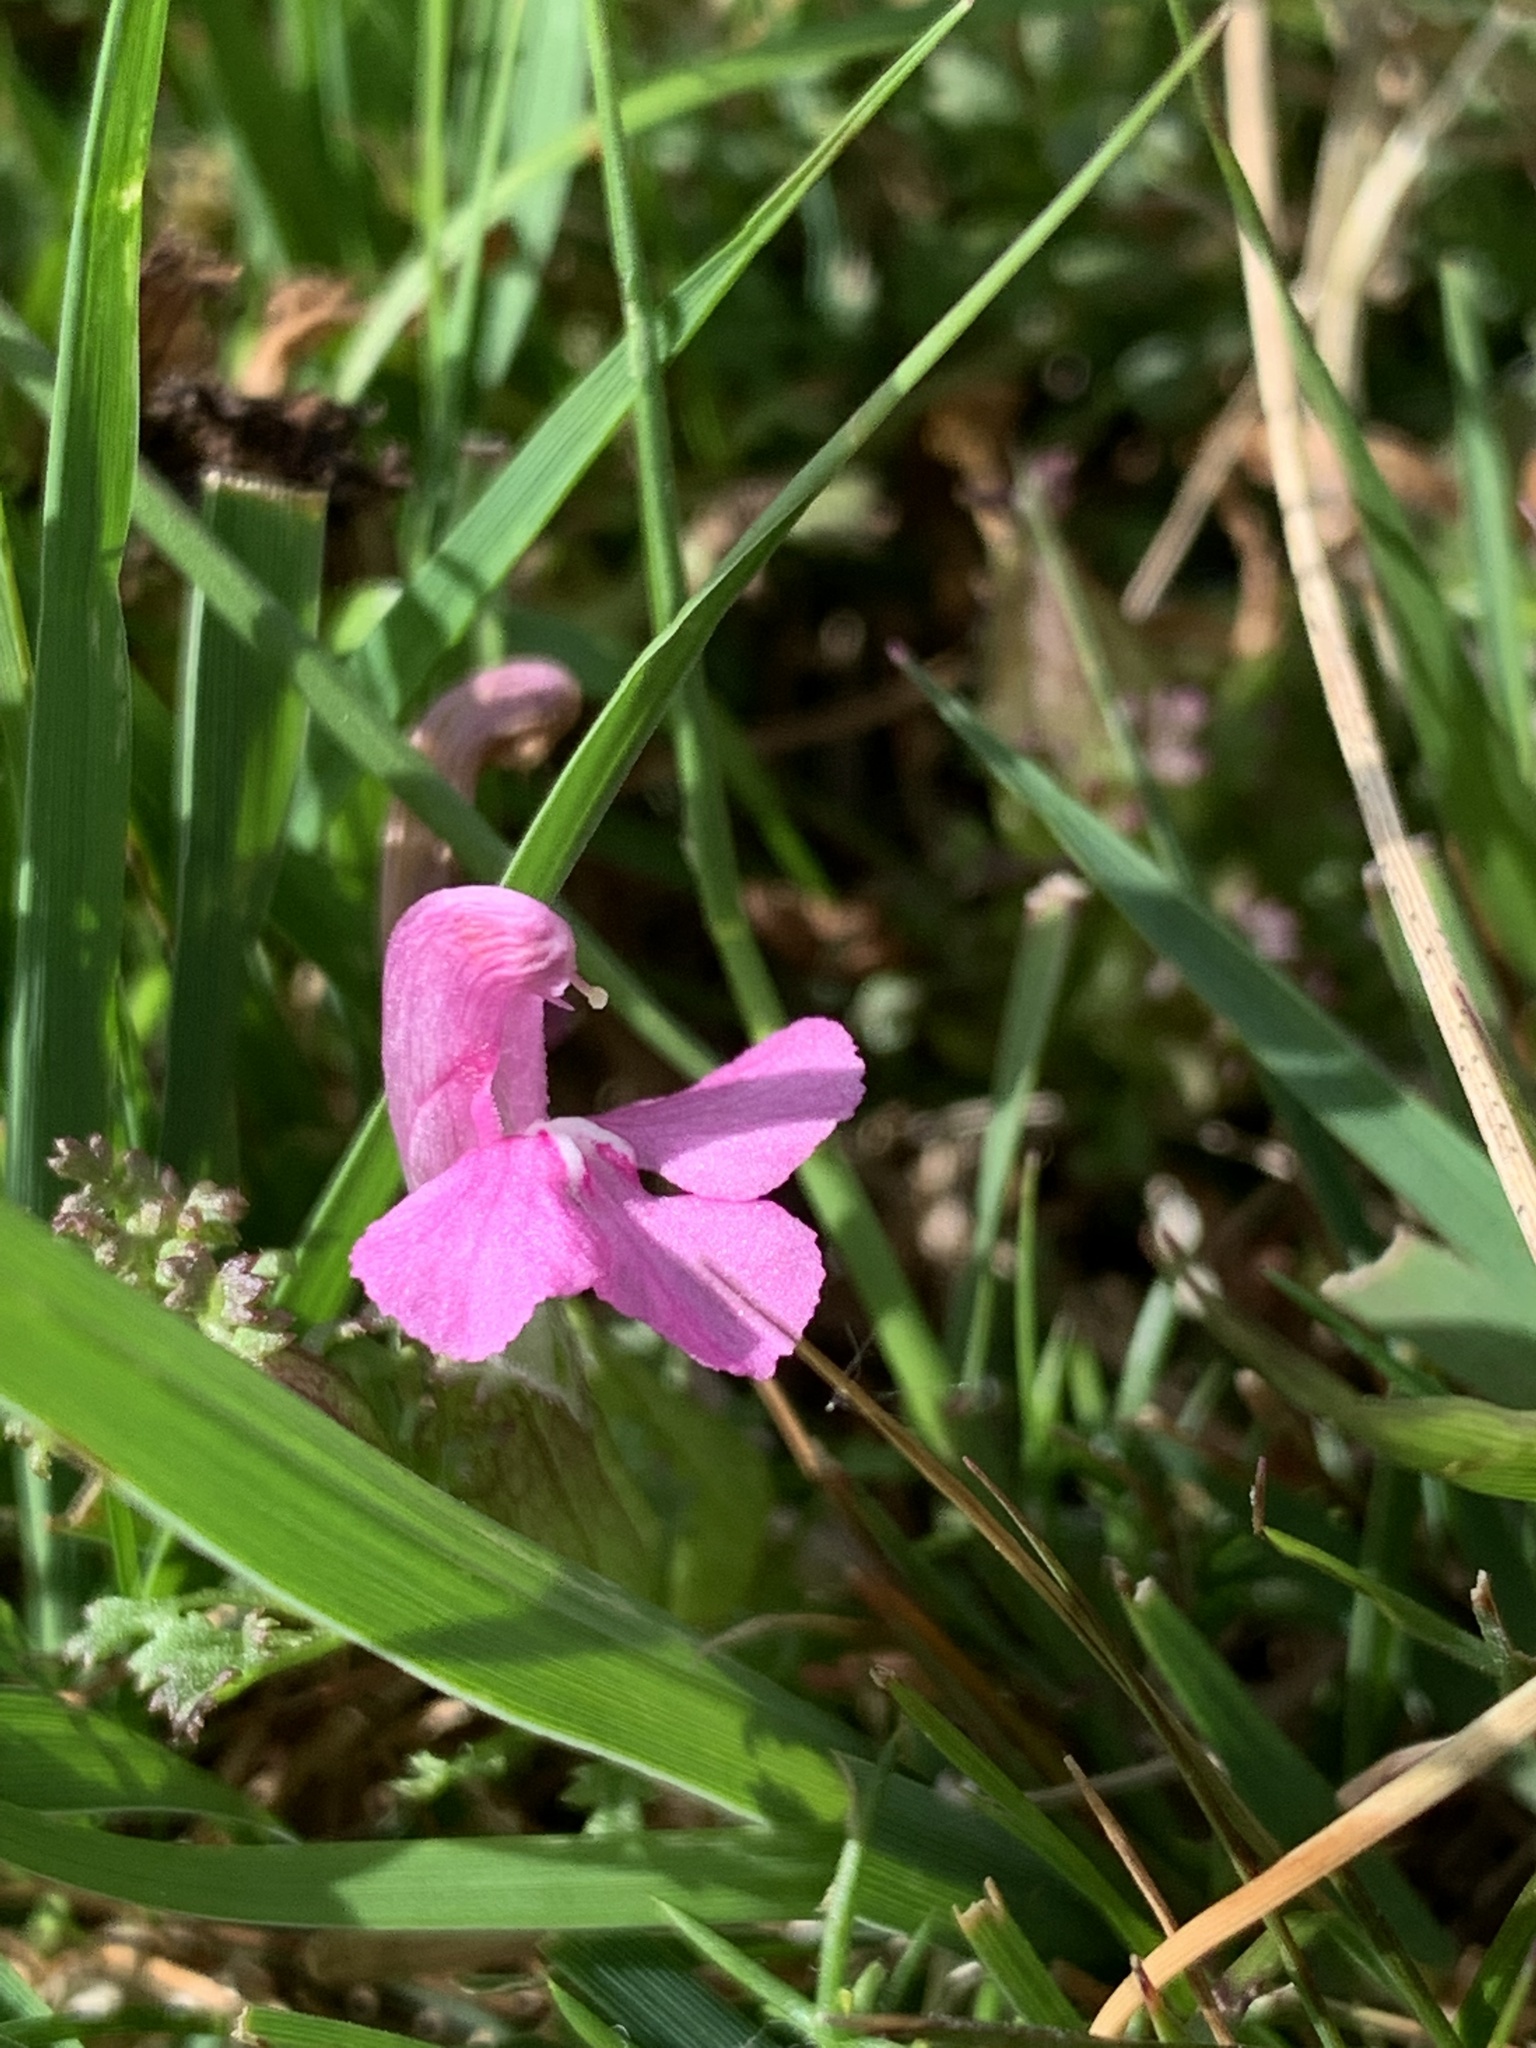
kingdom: Plantae
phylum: Tracheophyta
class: Magnoliopsida
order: Lamiales
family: Orobanchaceae
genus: Pedicularis
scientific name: Pedicularis sylvatica
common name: Lousewort
